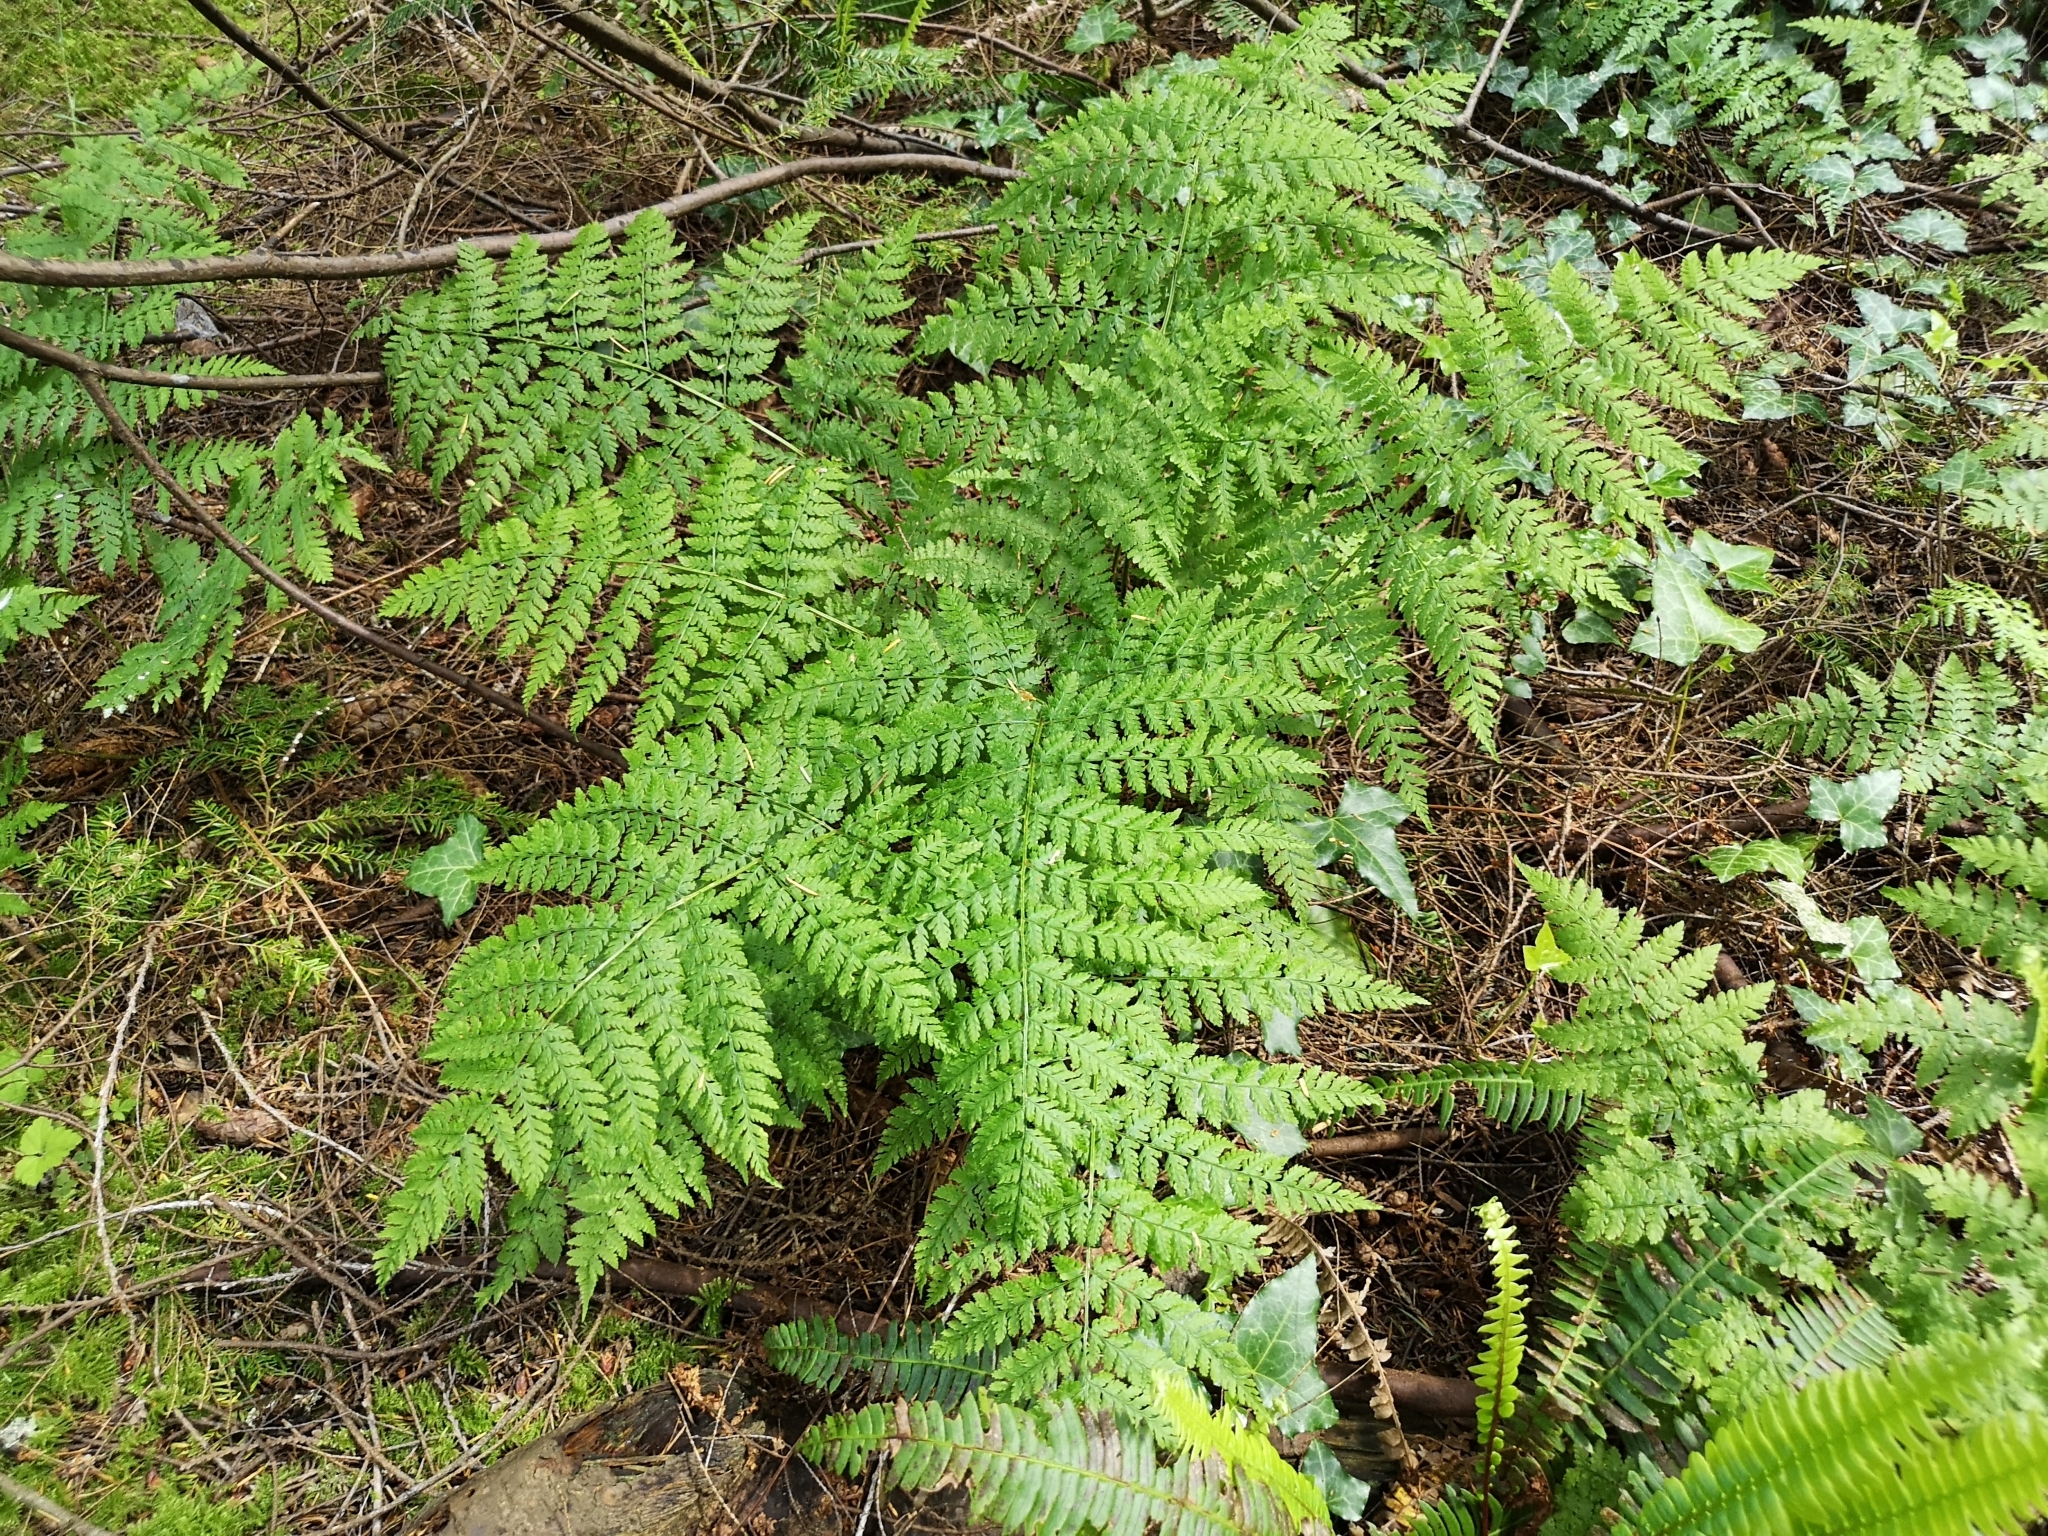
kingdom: Plantae
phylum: Tracheophyta
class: Polypodiopsida
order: Polypodiales
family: Dryopteridaceae
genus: Dryopteris
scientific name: Dryopteris expansa
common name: Northern buckler fern
